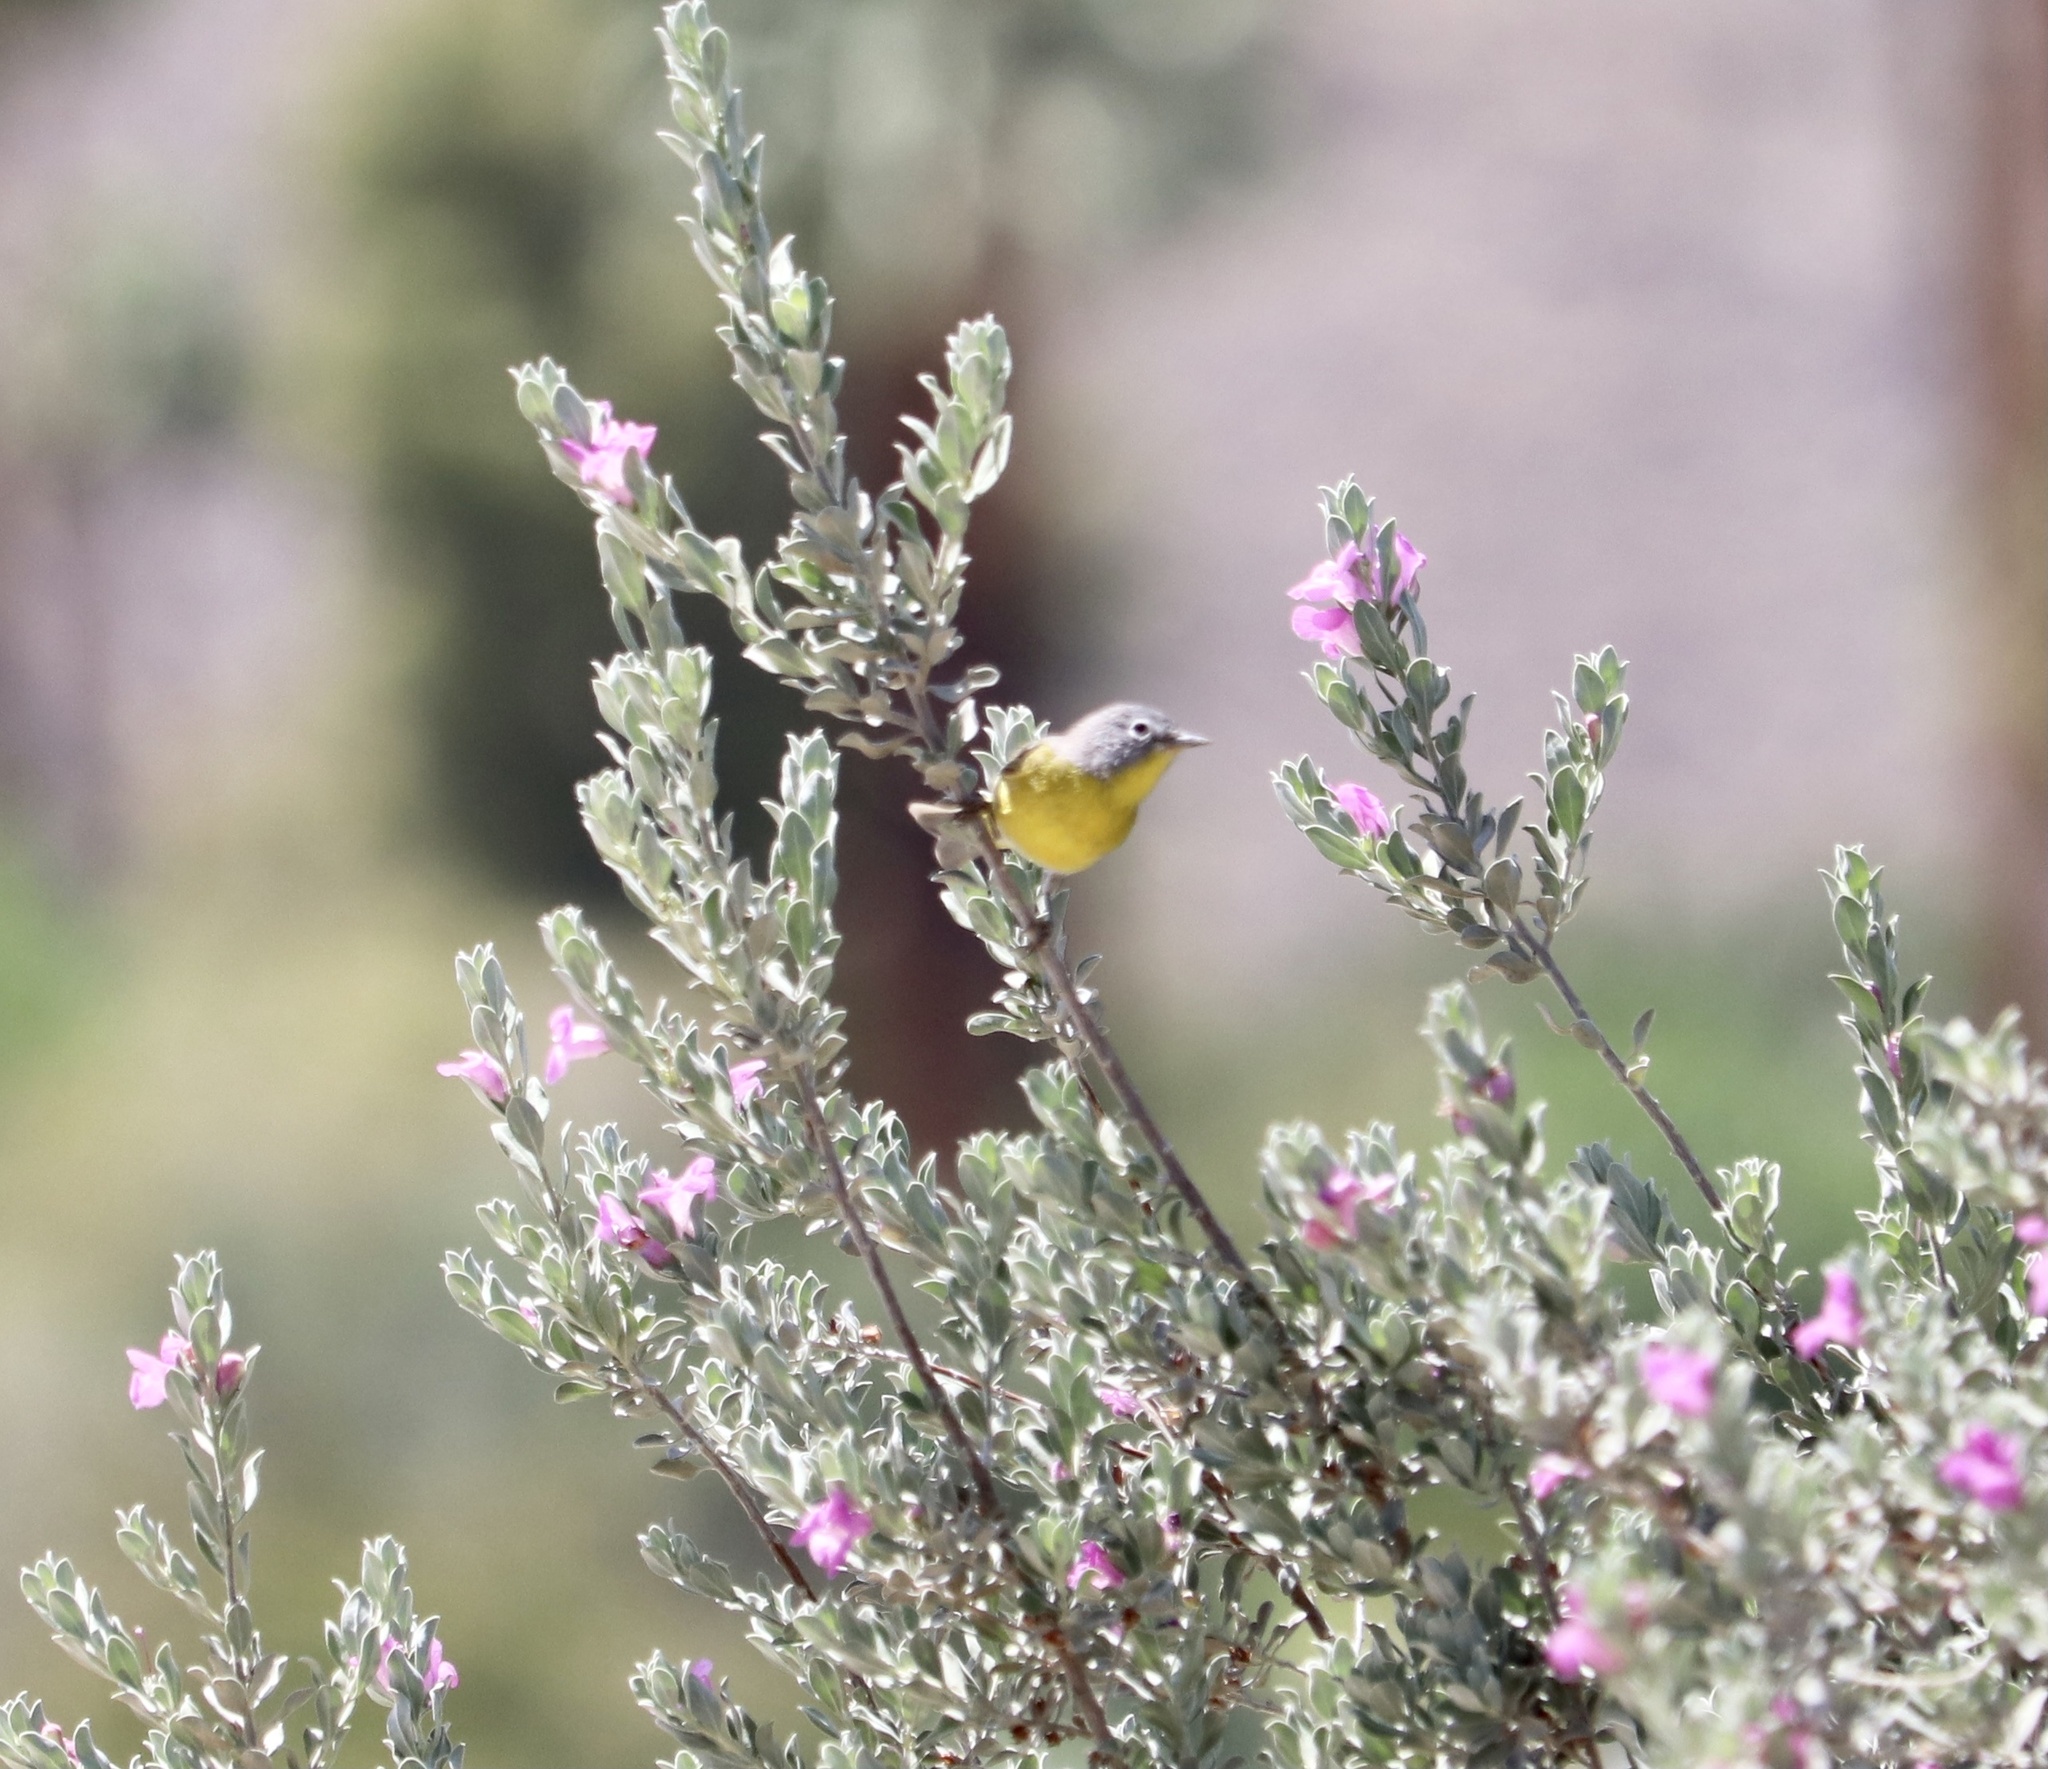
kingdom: Animalia
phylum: Chordata
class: Aves
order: Passeriformes
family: Parulidae
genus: Leiothlypis
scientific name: Leiothlypis ruficapilla
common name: Nashville warbler
